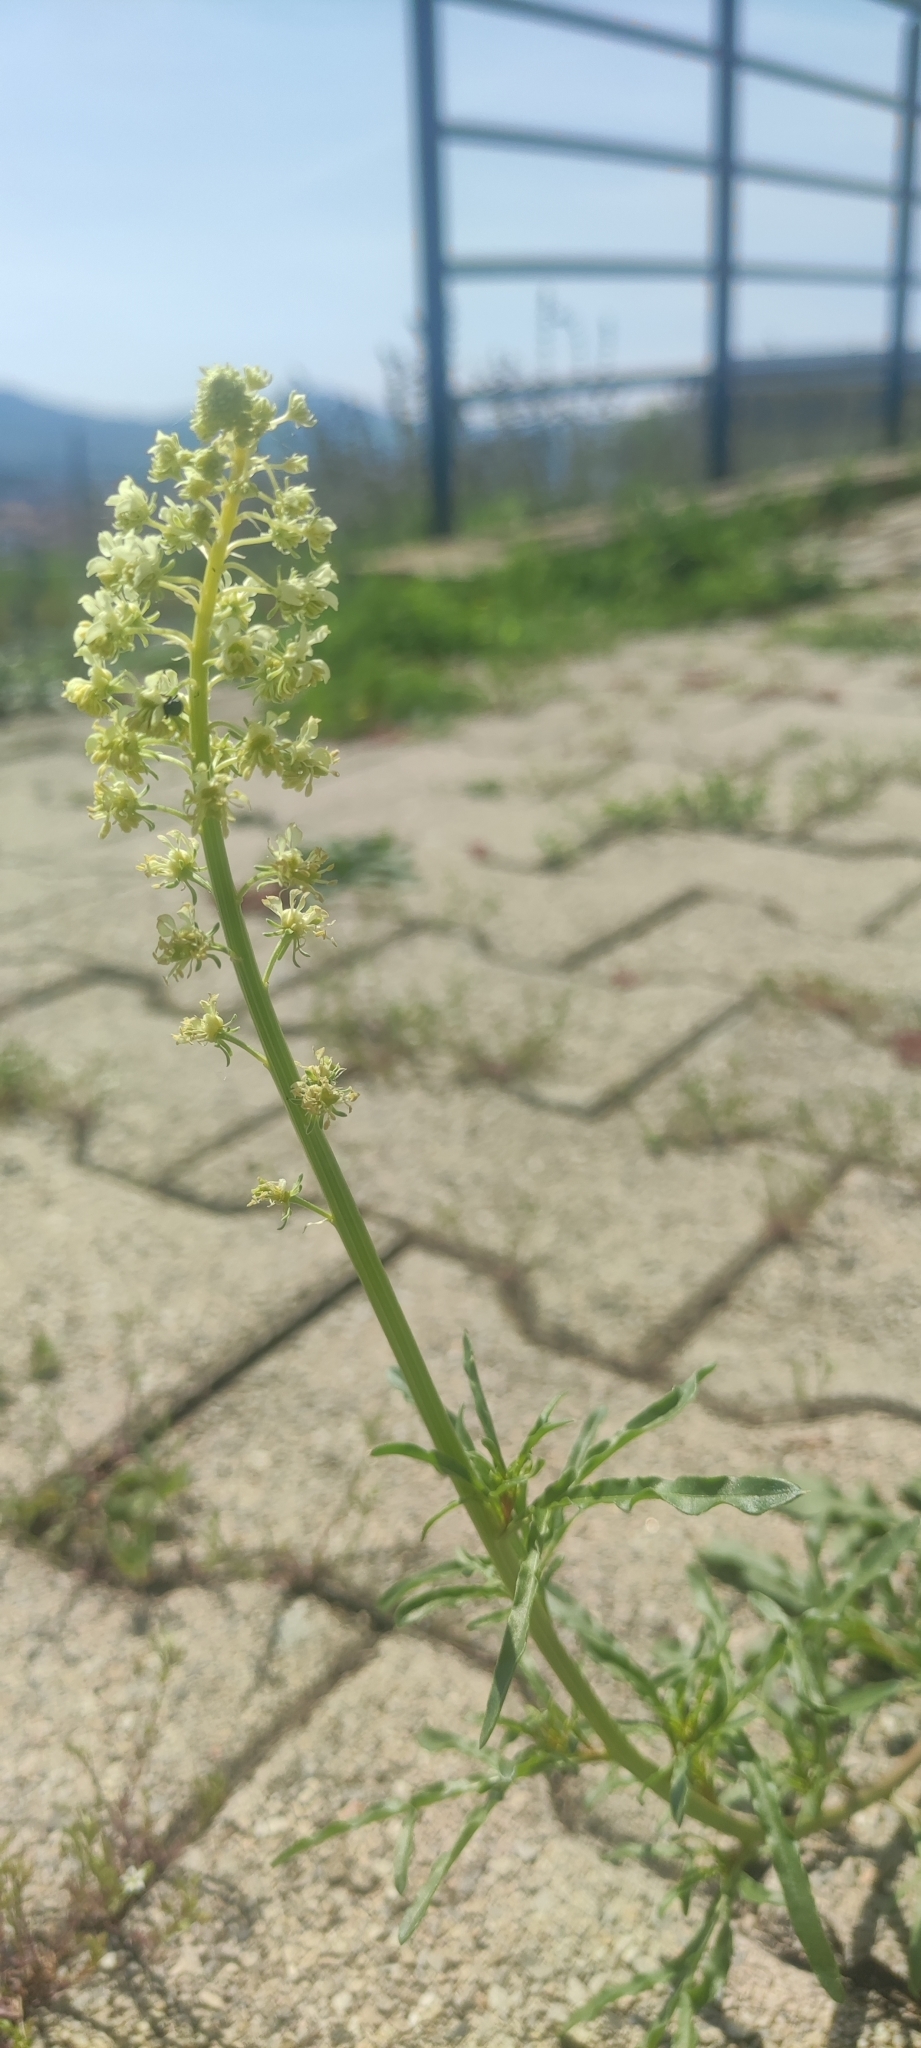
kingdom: Plantae
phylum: Tracheophyta
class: Magnoliopsida
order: Brassicales
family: Resedaceae
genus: Reseda
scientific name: Reseda lutea
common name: Wild mignonette
